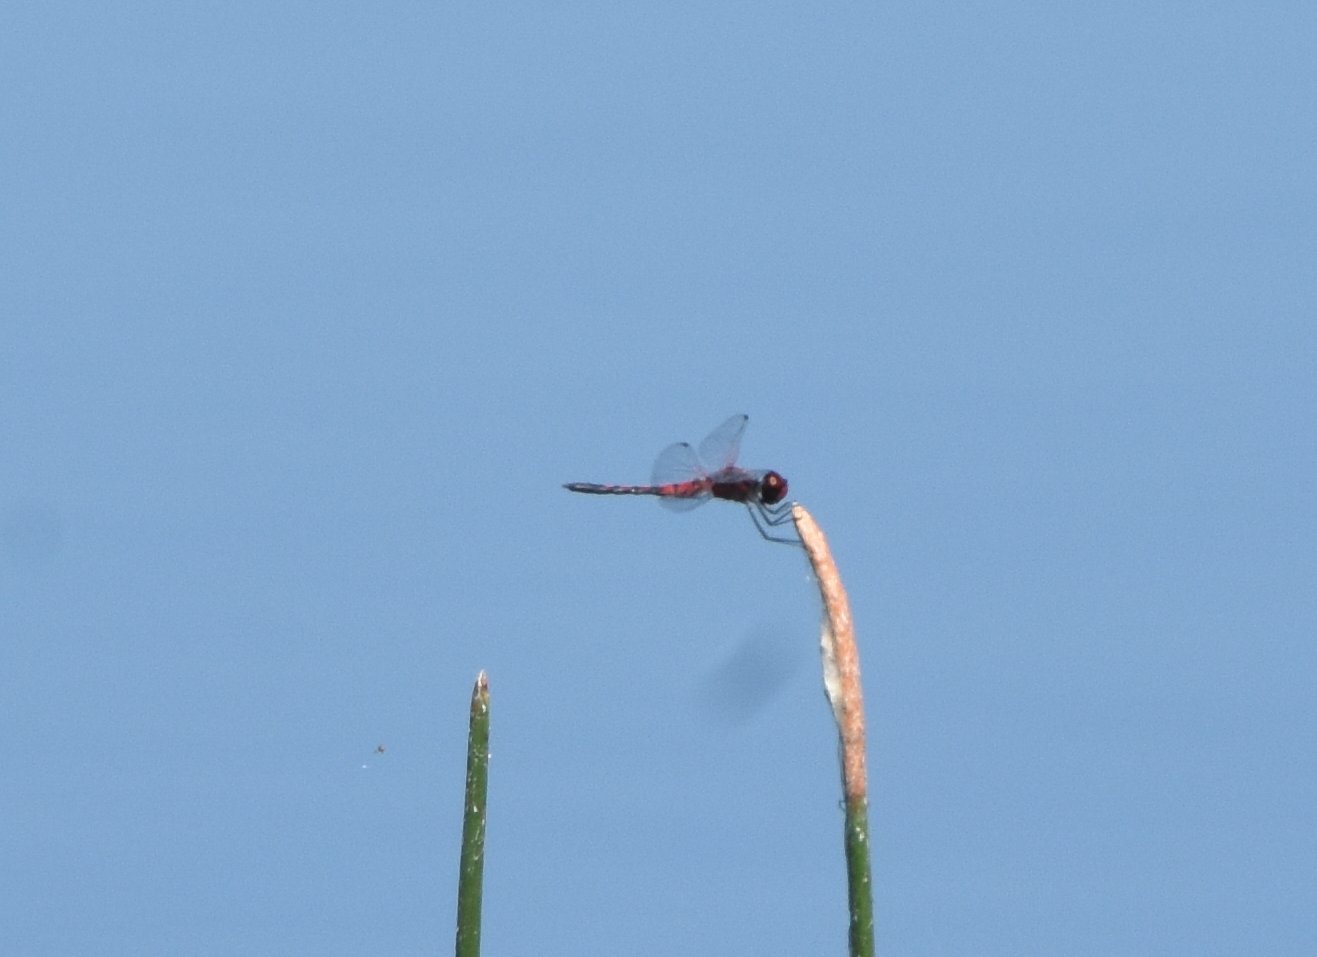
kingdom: Animalia
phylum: Arthropoda
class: Insecta
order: Odonata
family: Libellulidae
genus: Celithemis
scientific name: Celithemis bertha
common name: Red-veined pennant
